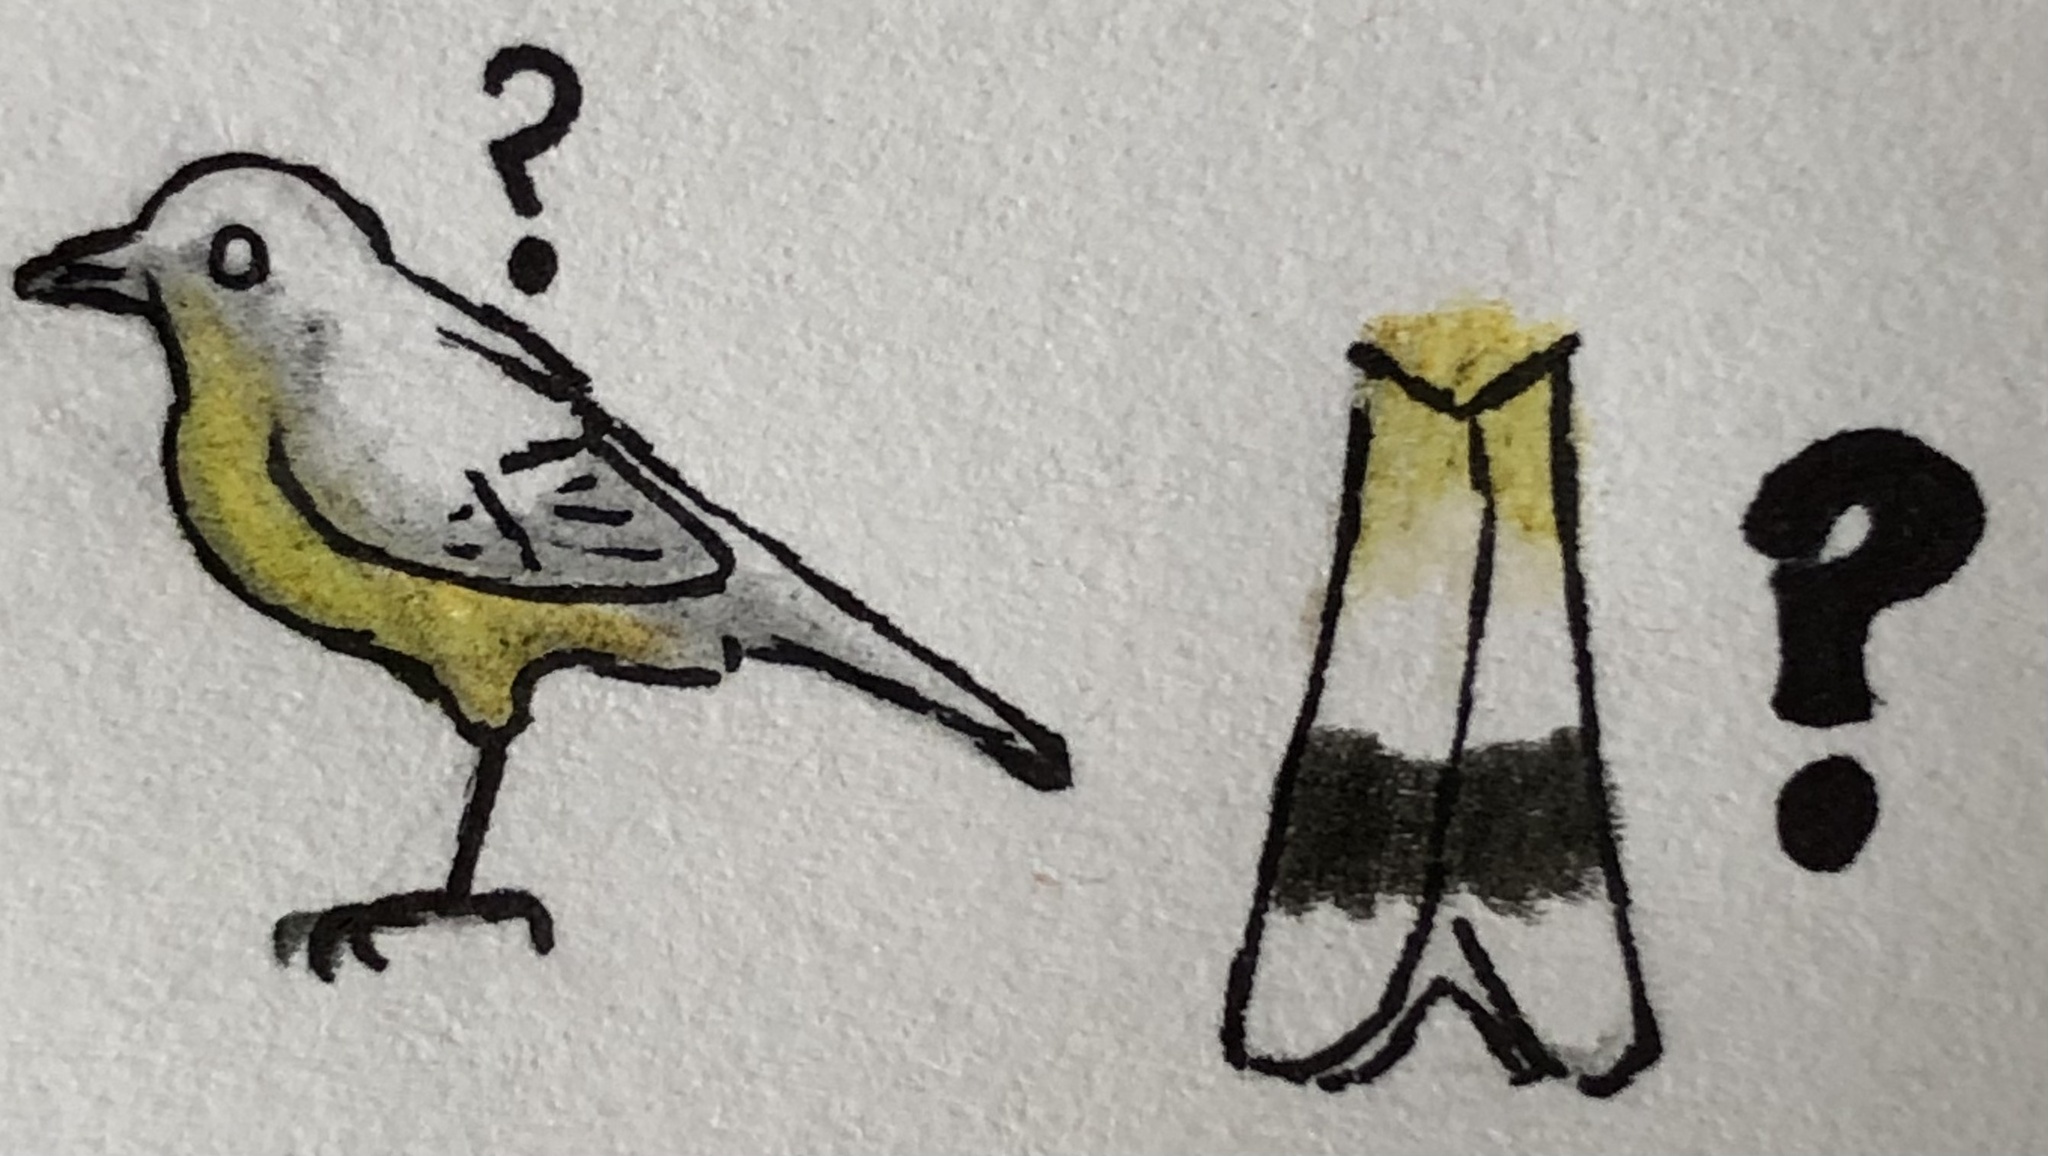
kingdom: Animalia
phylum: Chordata
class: Aves
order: Passeriformes
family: Parulidae
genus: Leiothlypis
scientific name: Leiothlypis ruficapilla
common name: Nashville warbler
